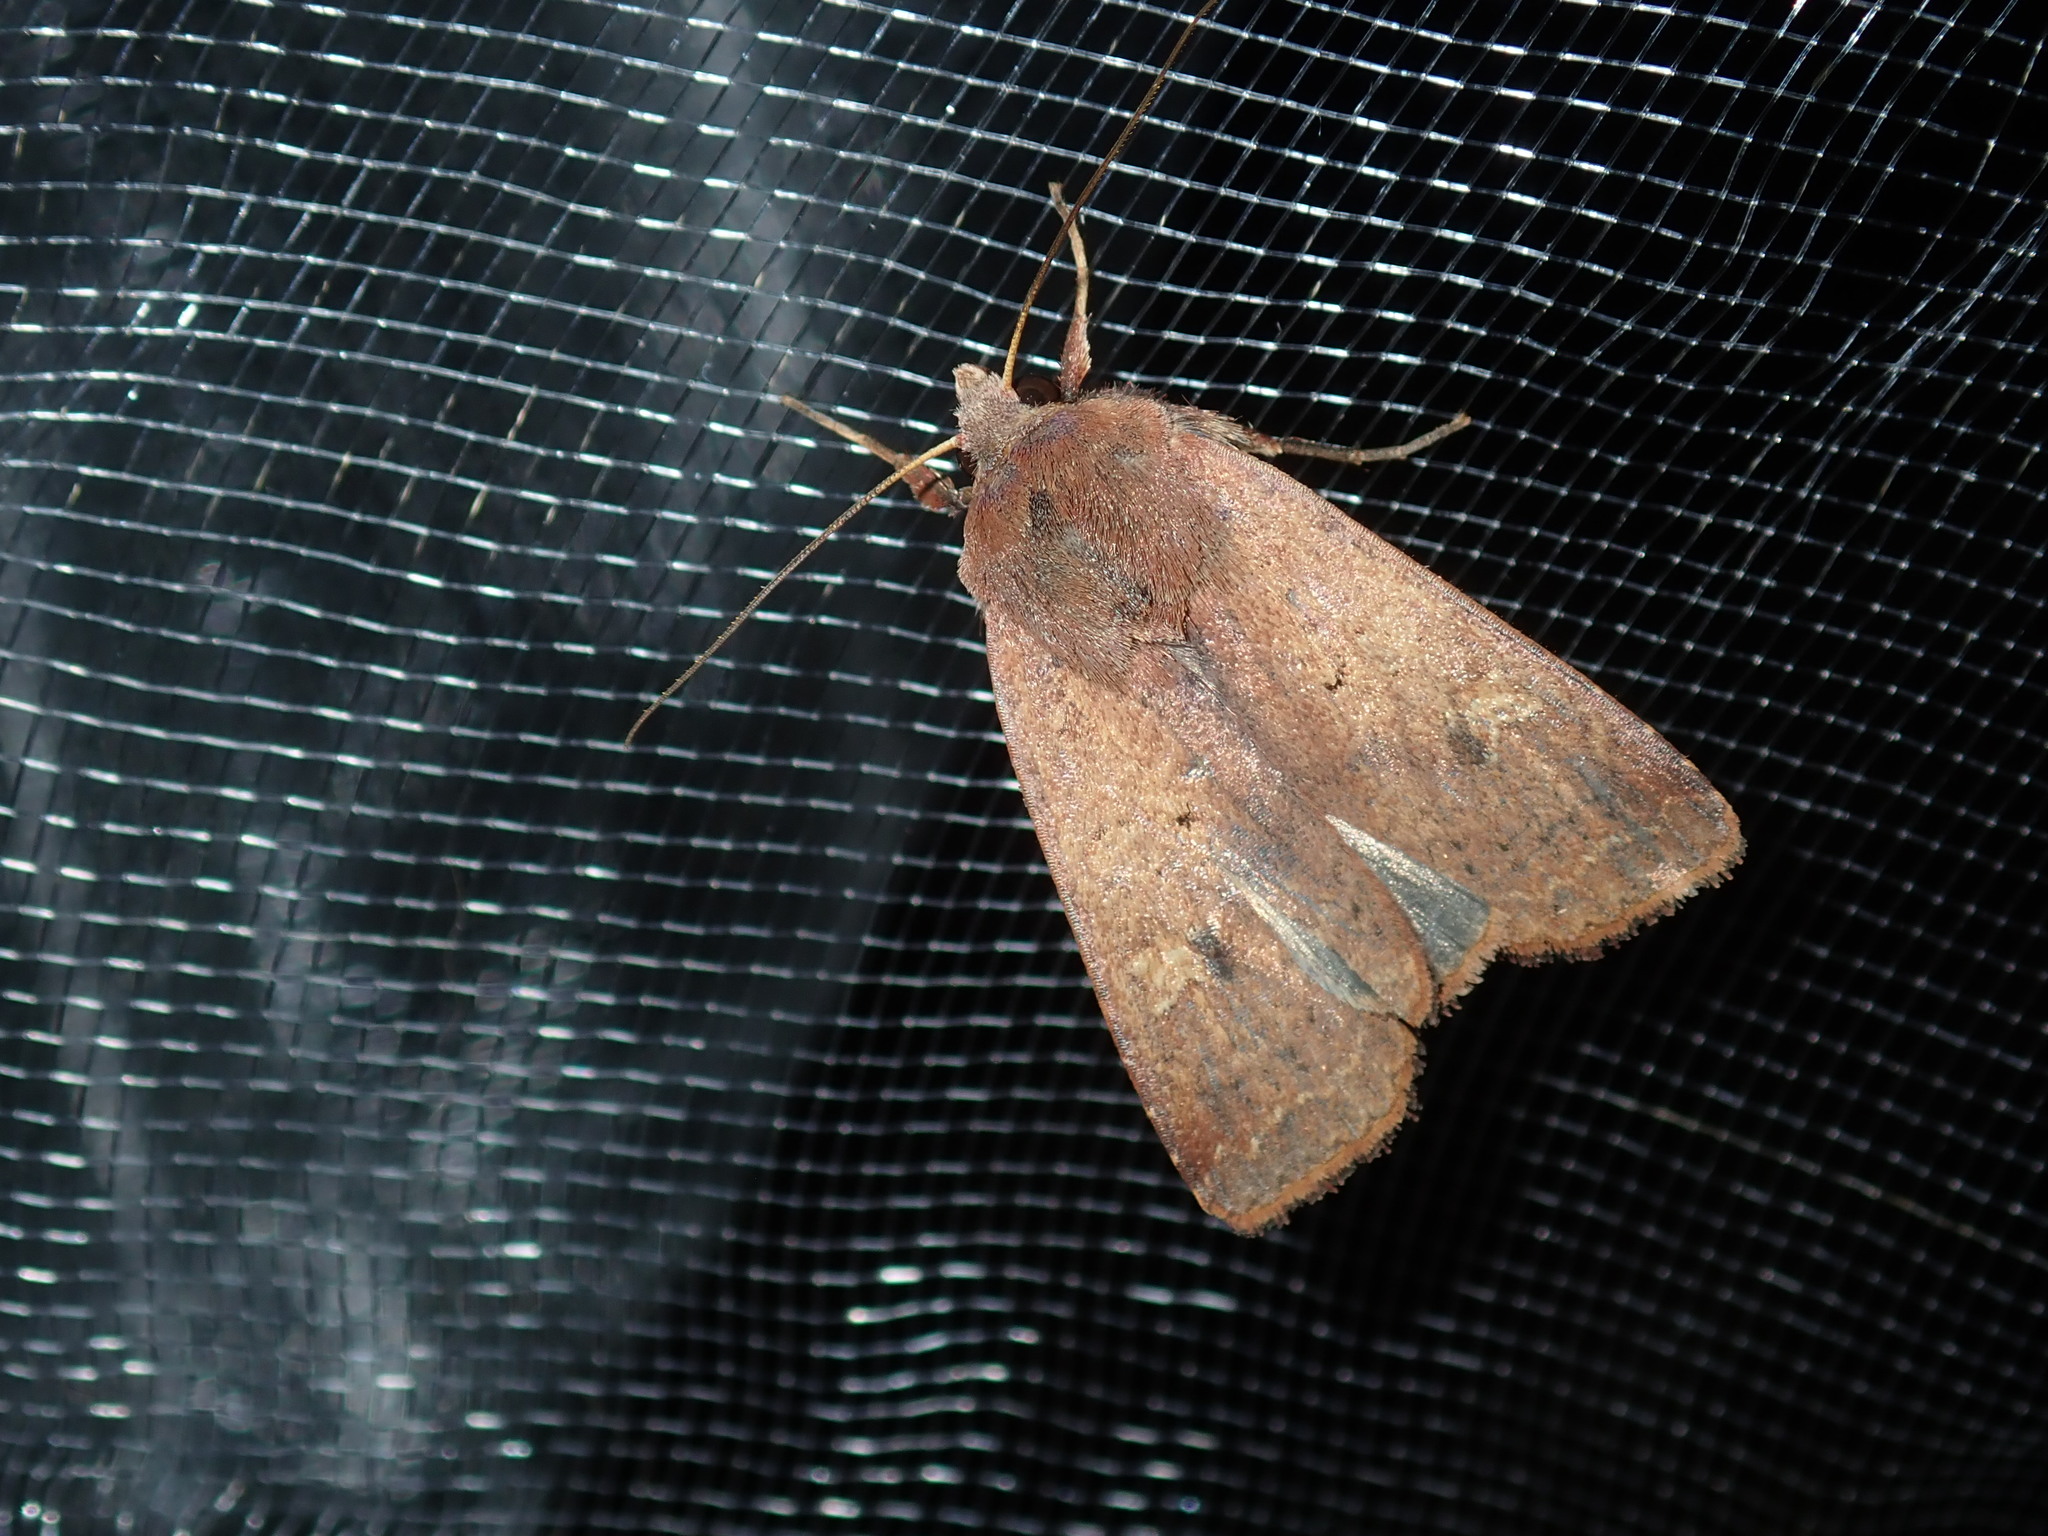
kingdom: Animalia
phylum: Arthropoda
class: Insecta
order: Lepidoptera
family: Noctuidae
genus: Diarsia
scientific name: Diarsia intermixta
